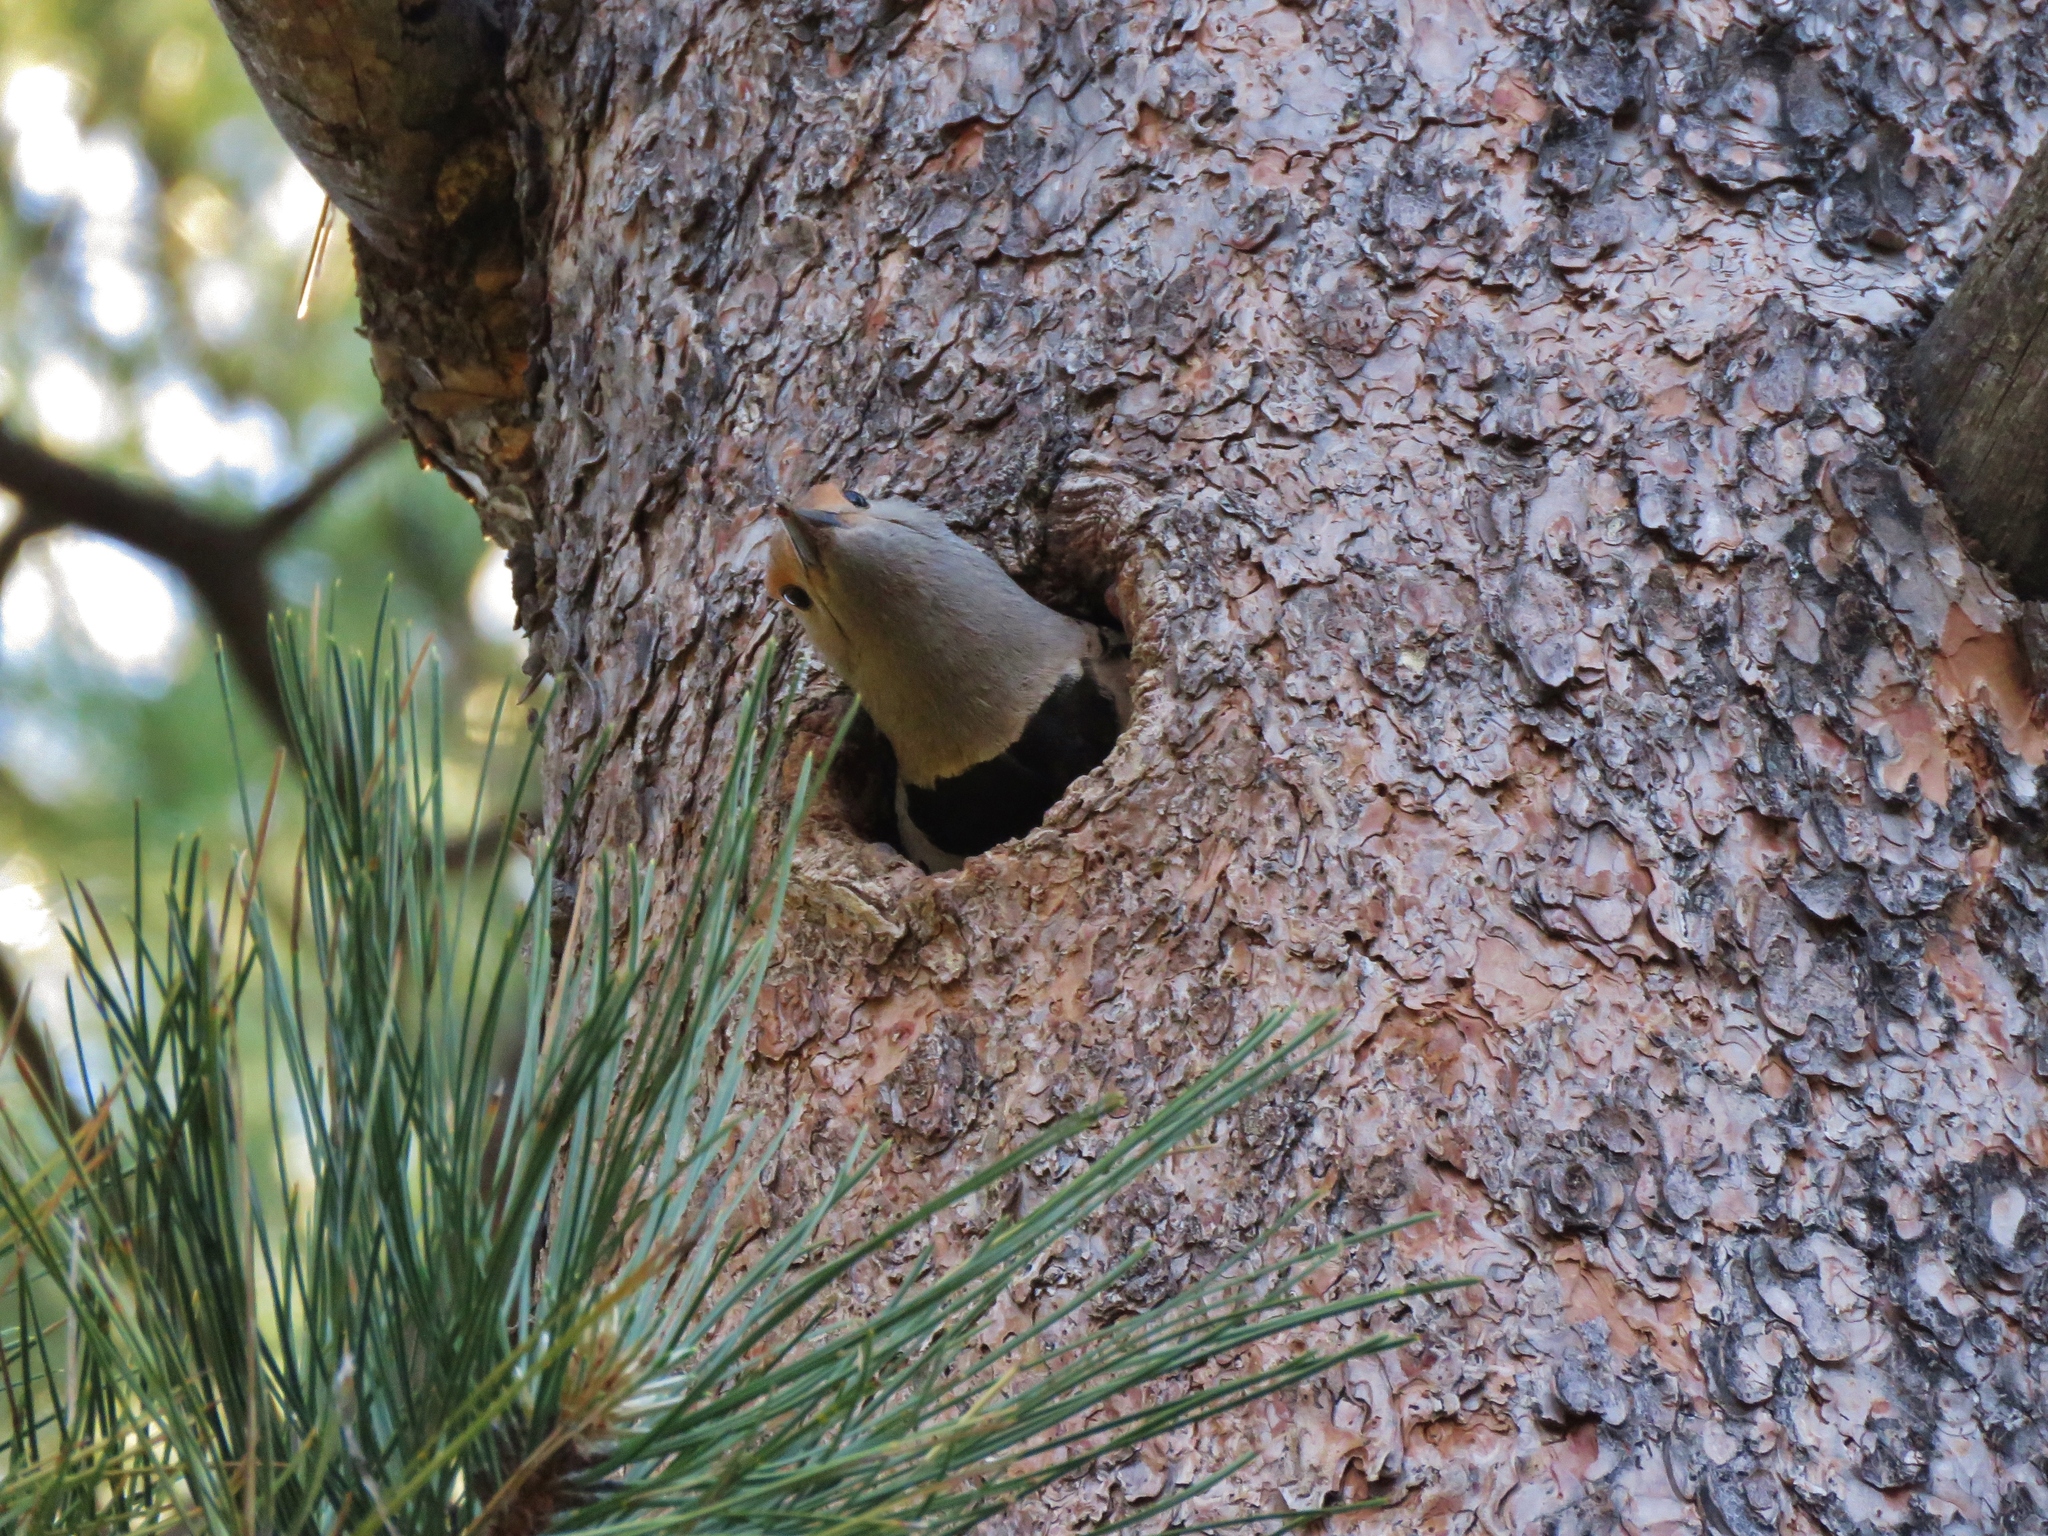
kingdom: Animalia
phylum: Chordata
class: Aves
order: Piciformes
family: Picidae
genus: Colaptes
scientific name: Colaptes auratus
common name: Northern flicker
